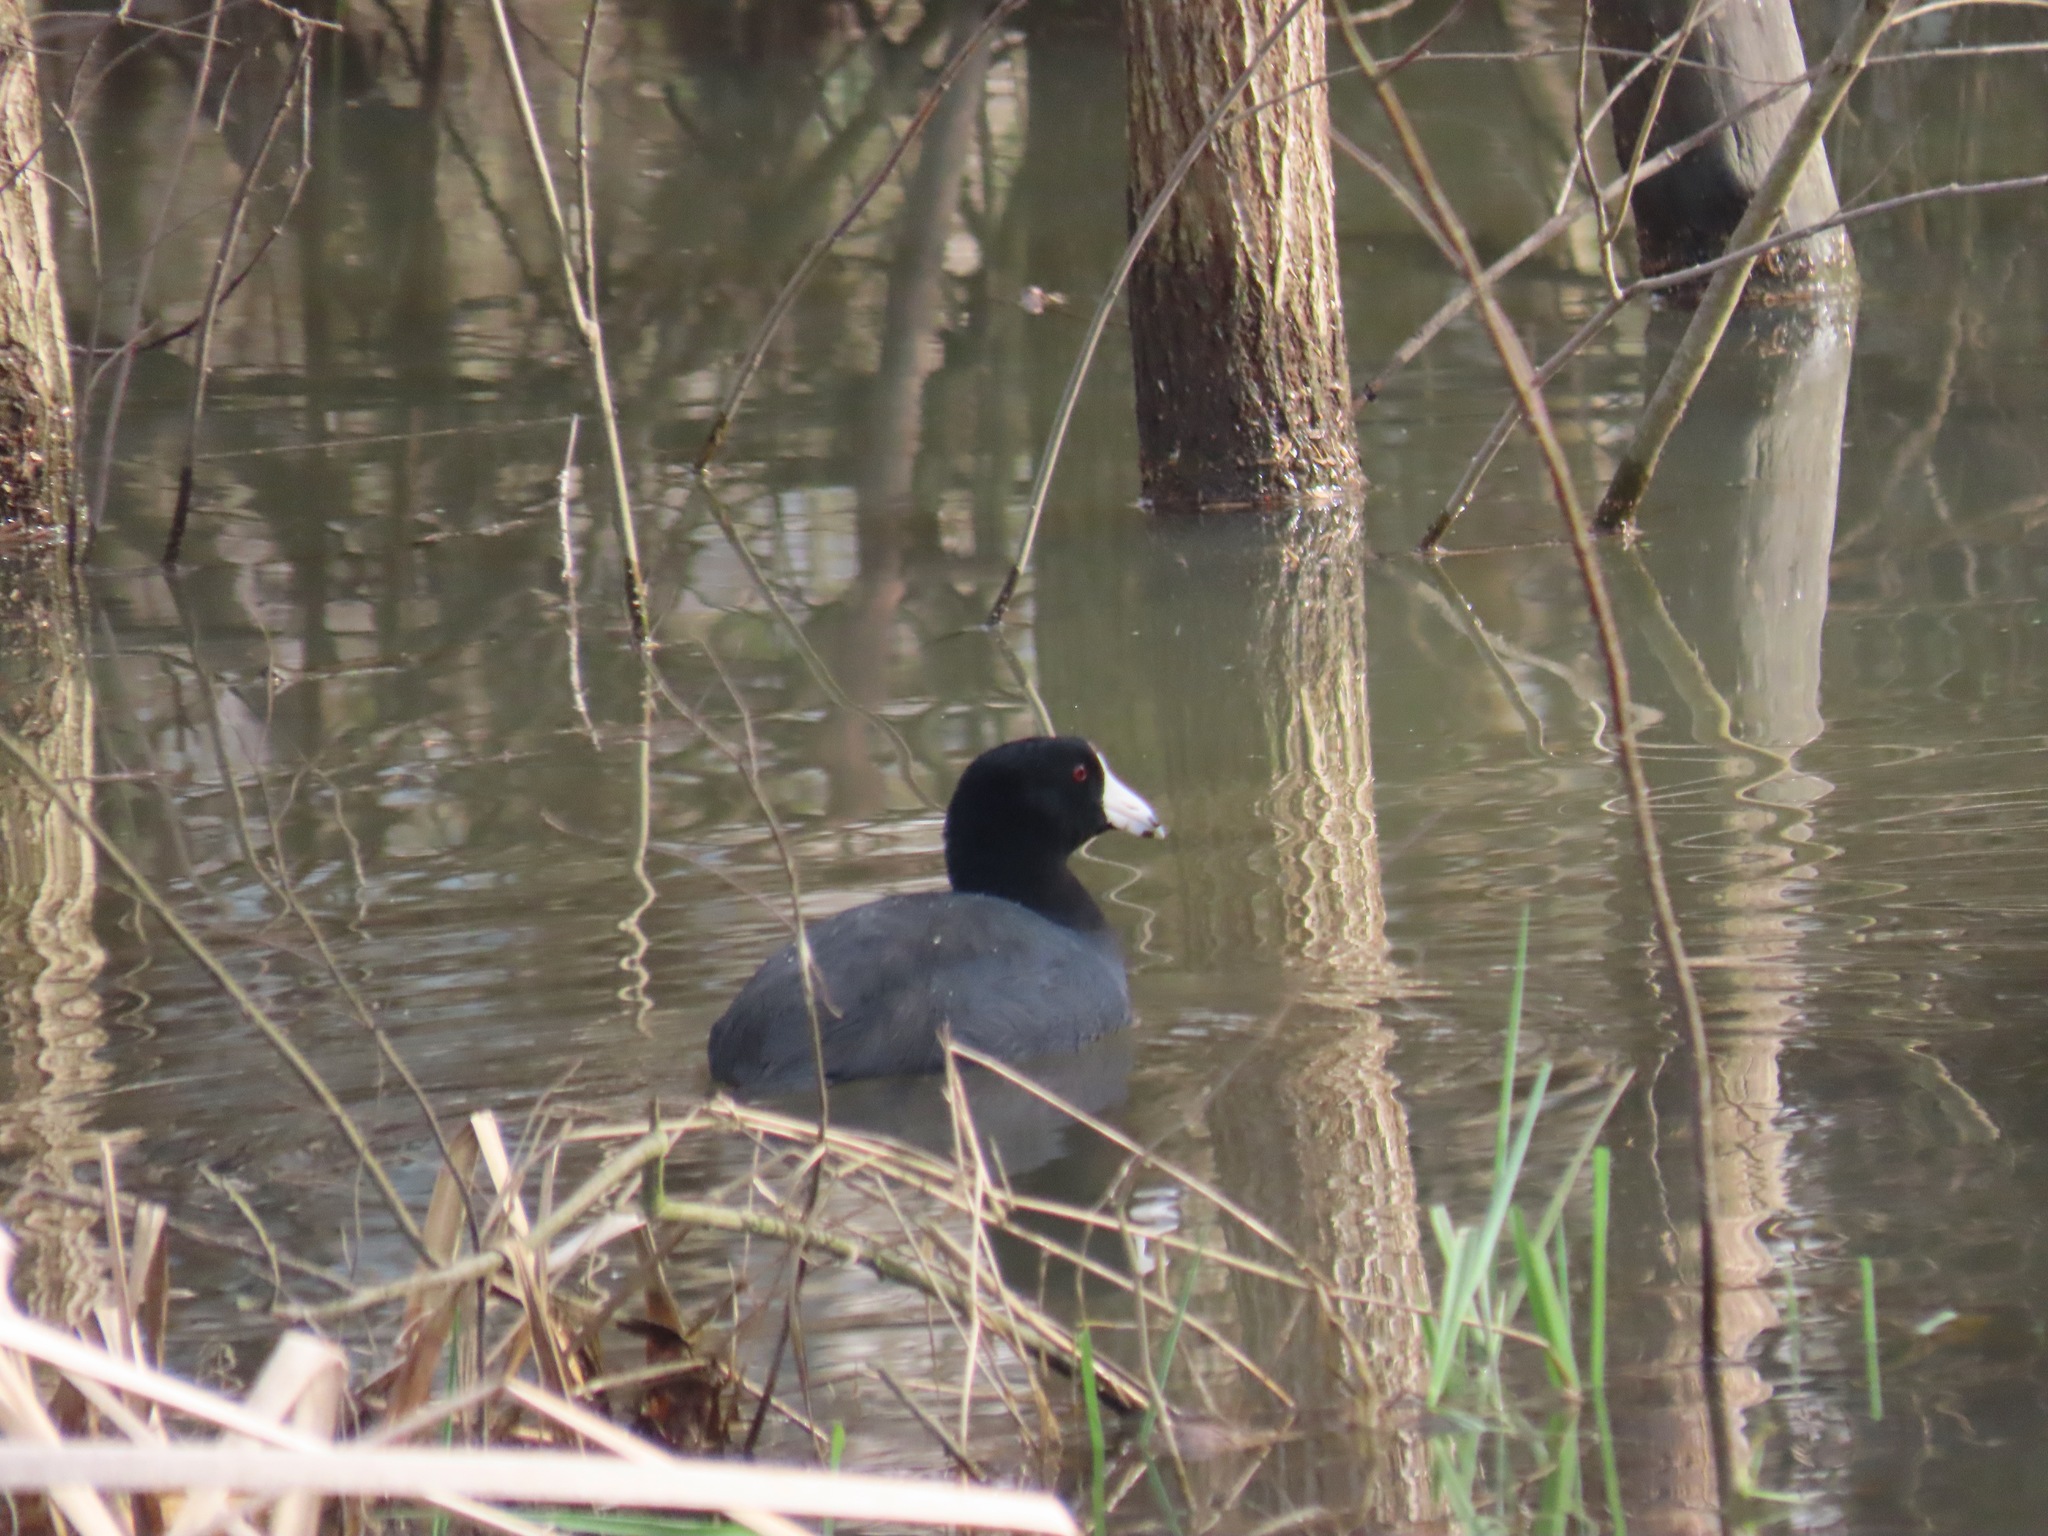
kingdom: Animalia
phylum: Chordata
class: Aves
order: Gruiformes
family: Rallidae
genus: Fulica
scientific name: Fulica americana
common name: American coot
